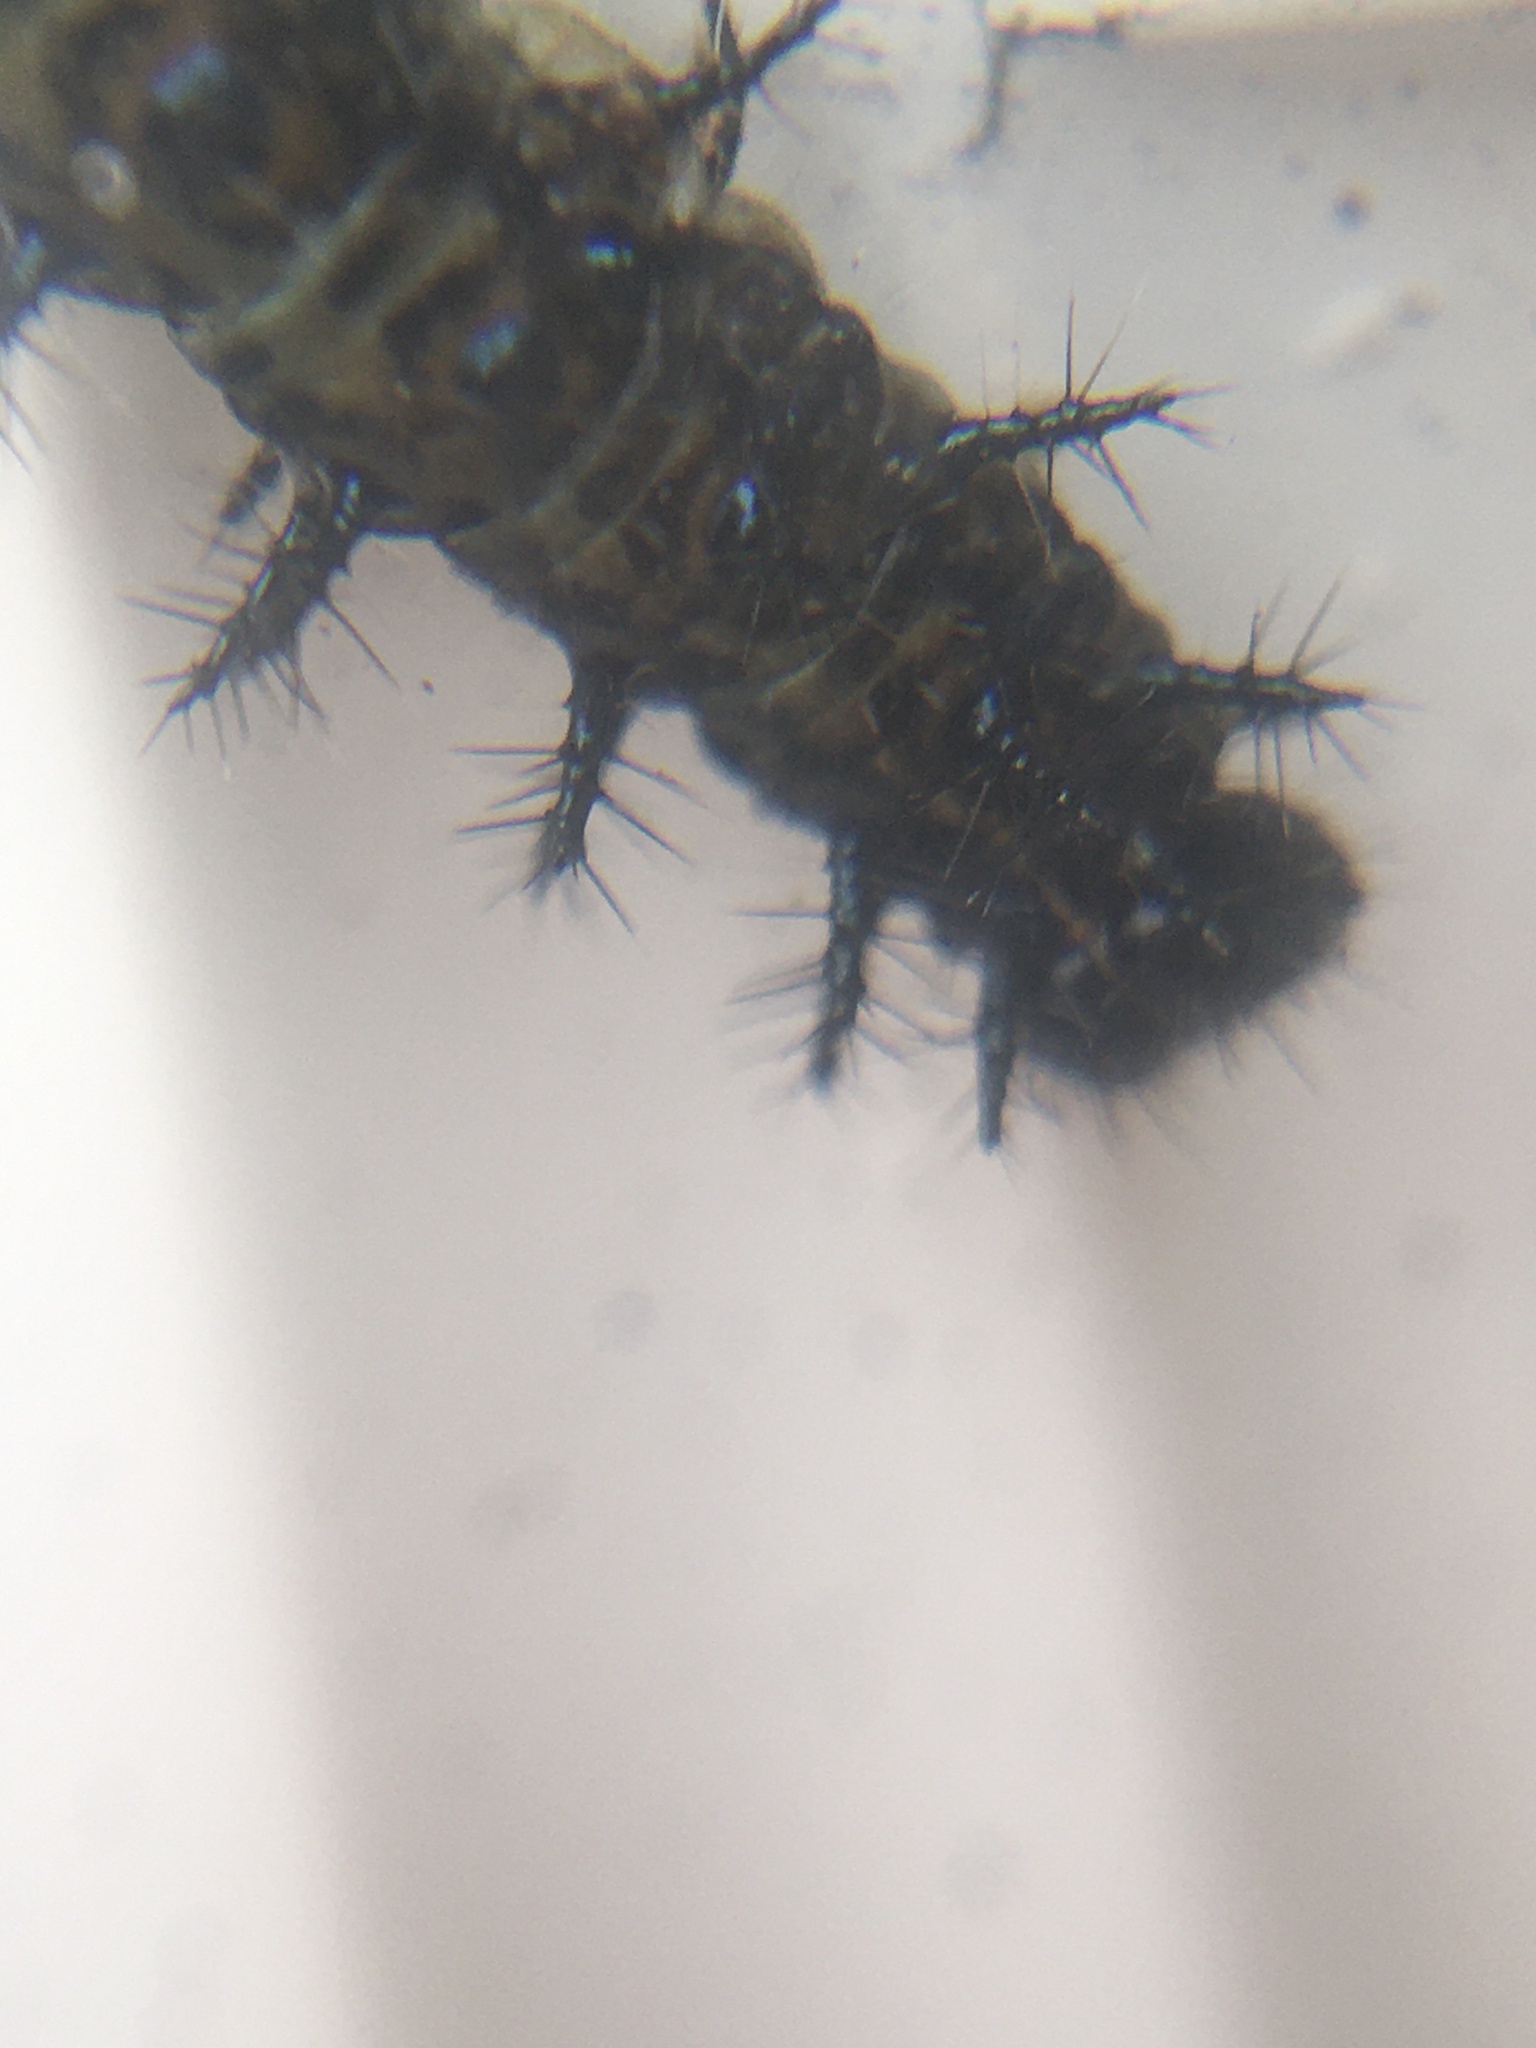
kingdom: Animalia
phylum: Arthropoda
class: Insecta
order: Lepidoptera
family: Nymphalidae
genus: Acraea
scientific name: Acraea horta
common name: Garden acraea
